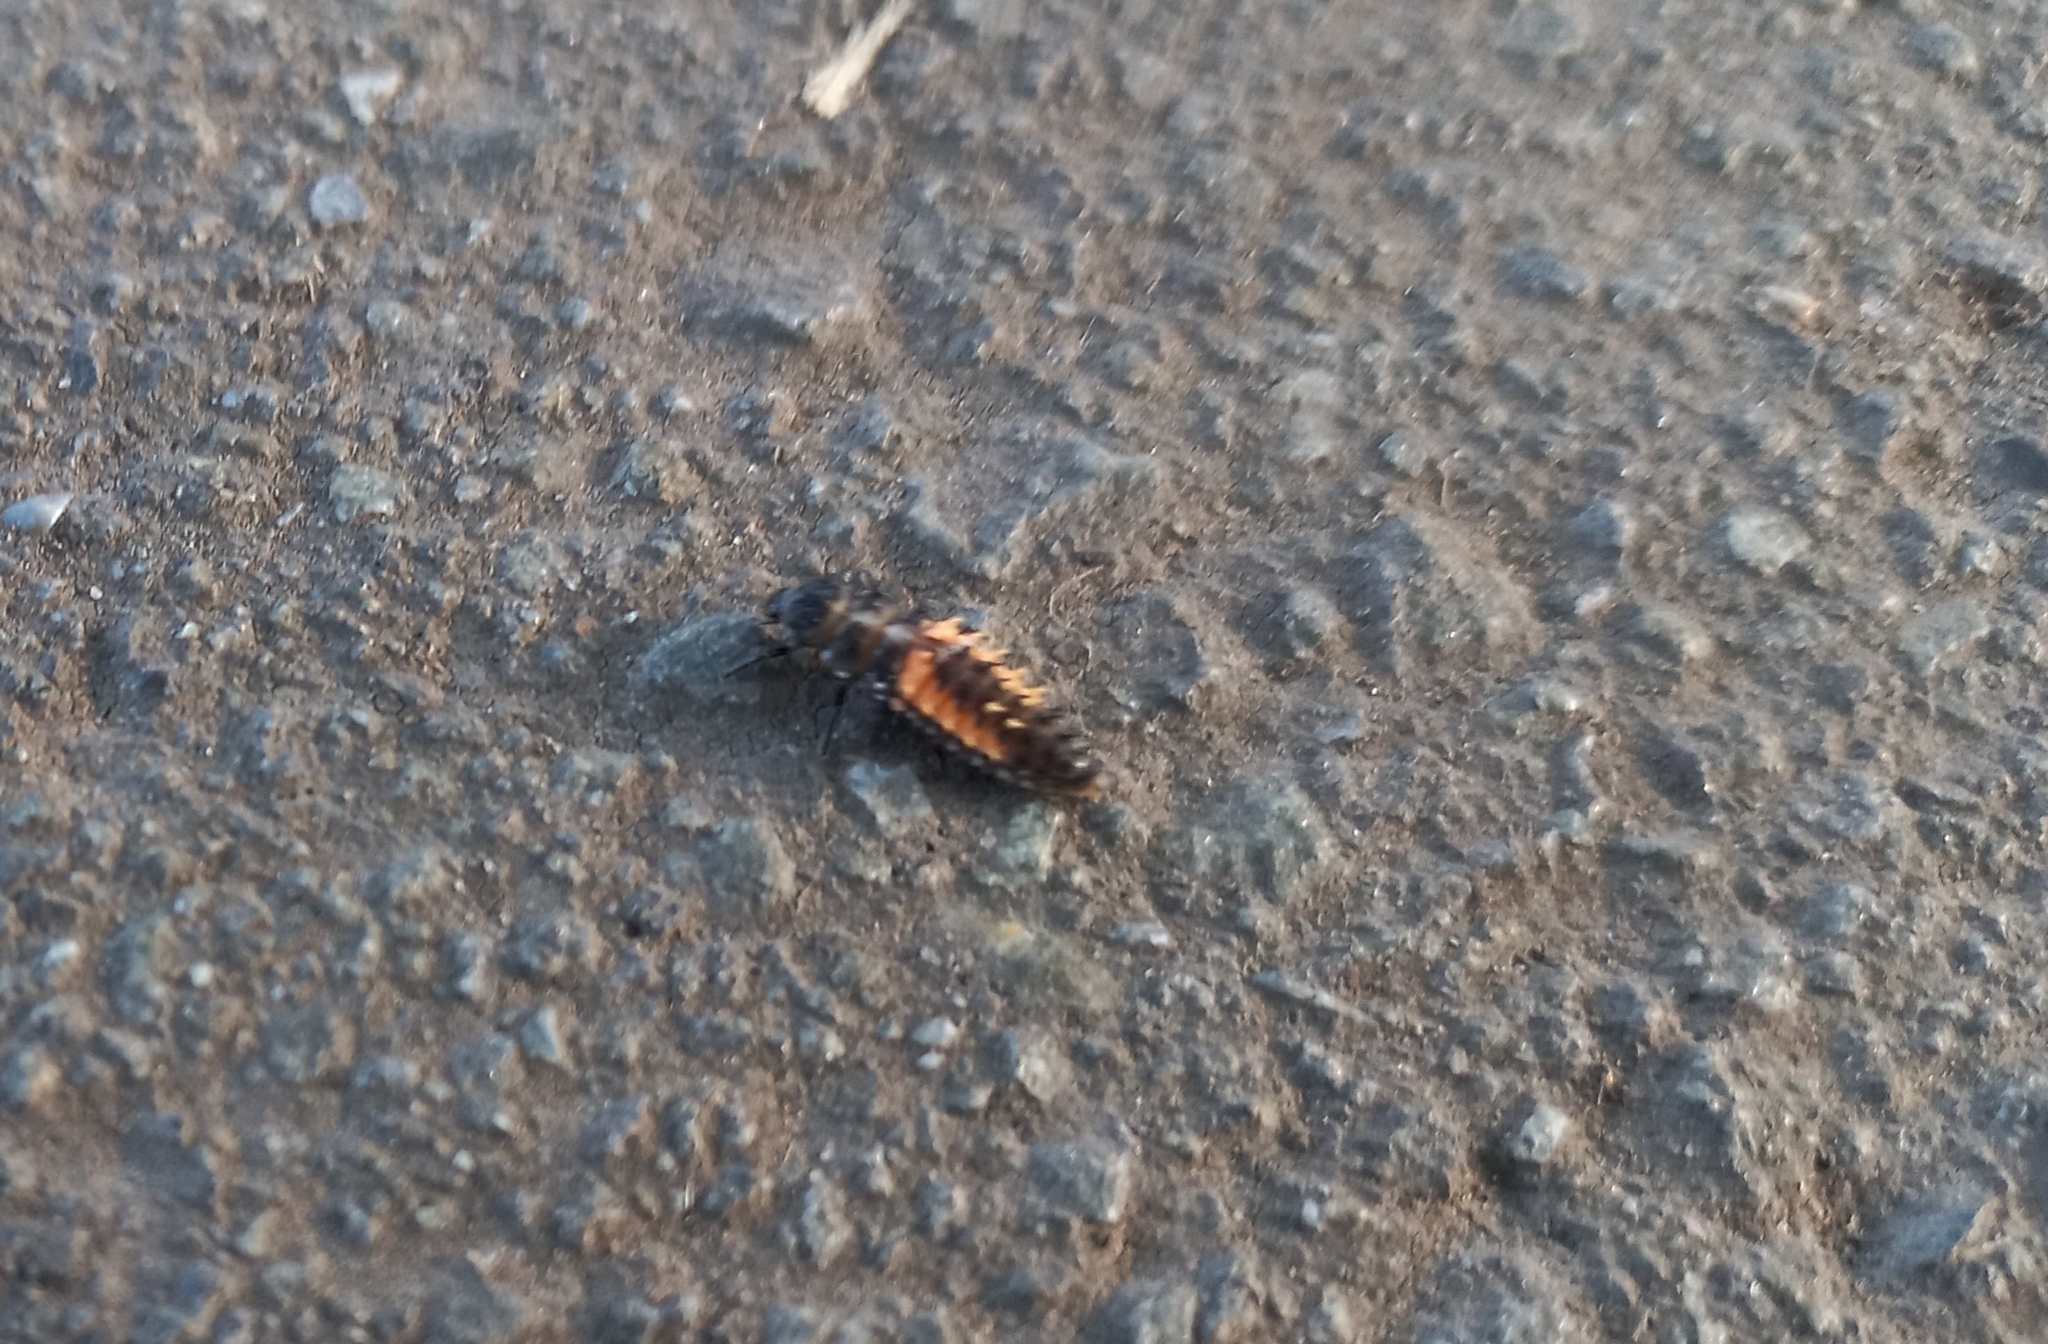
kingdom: Animalia
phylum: Arthropoda
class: Insecta
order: Coleoptera
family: Coccinellidae
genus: Harmonia
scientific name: Harmonia axyridis
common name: Harlequin ladybird
